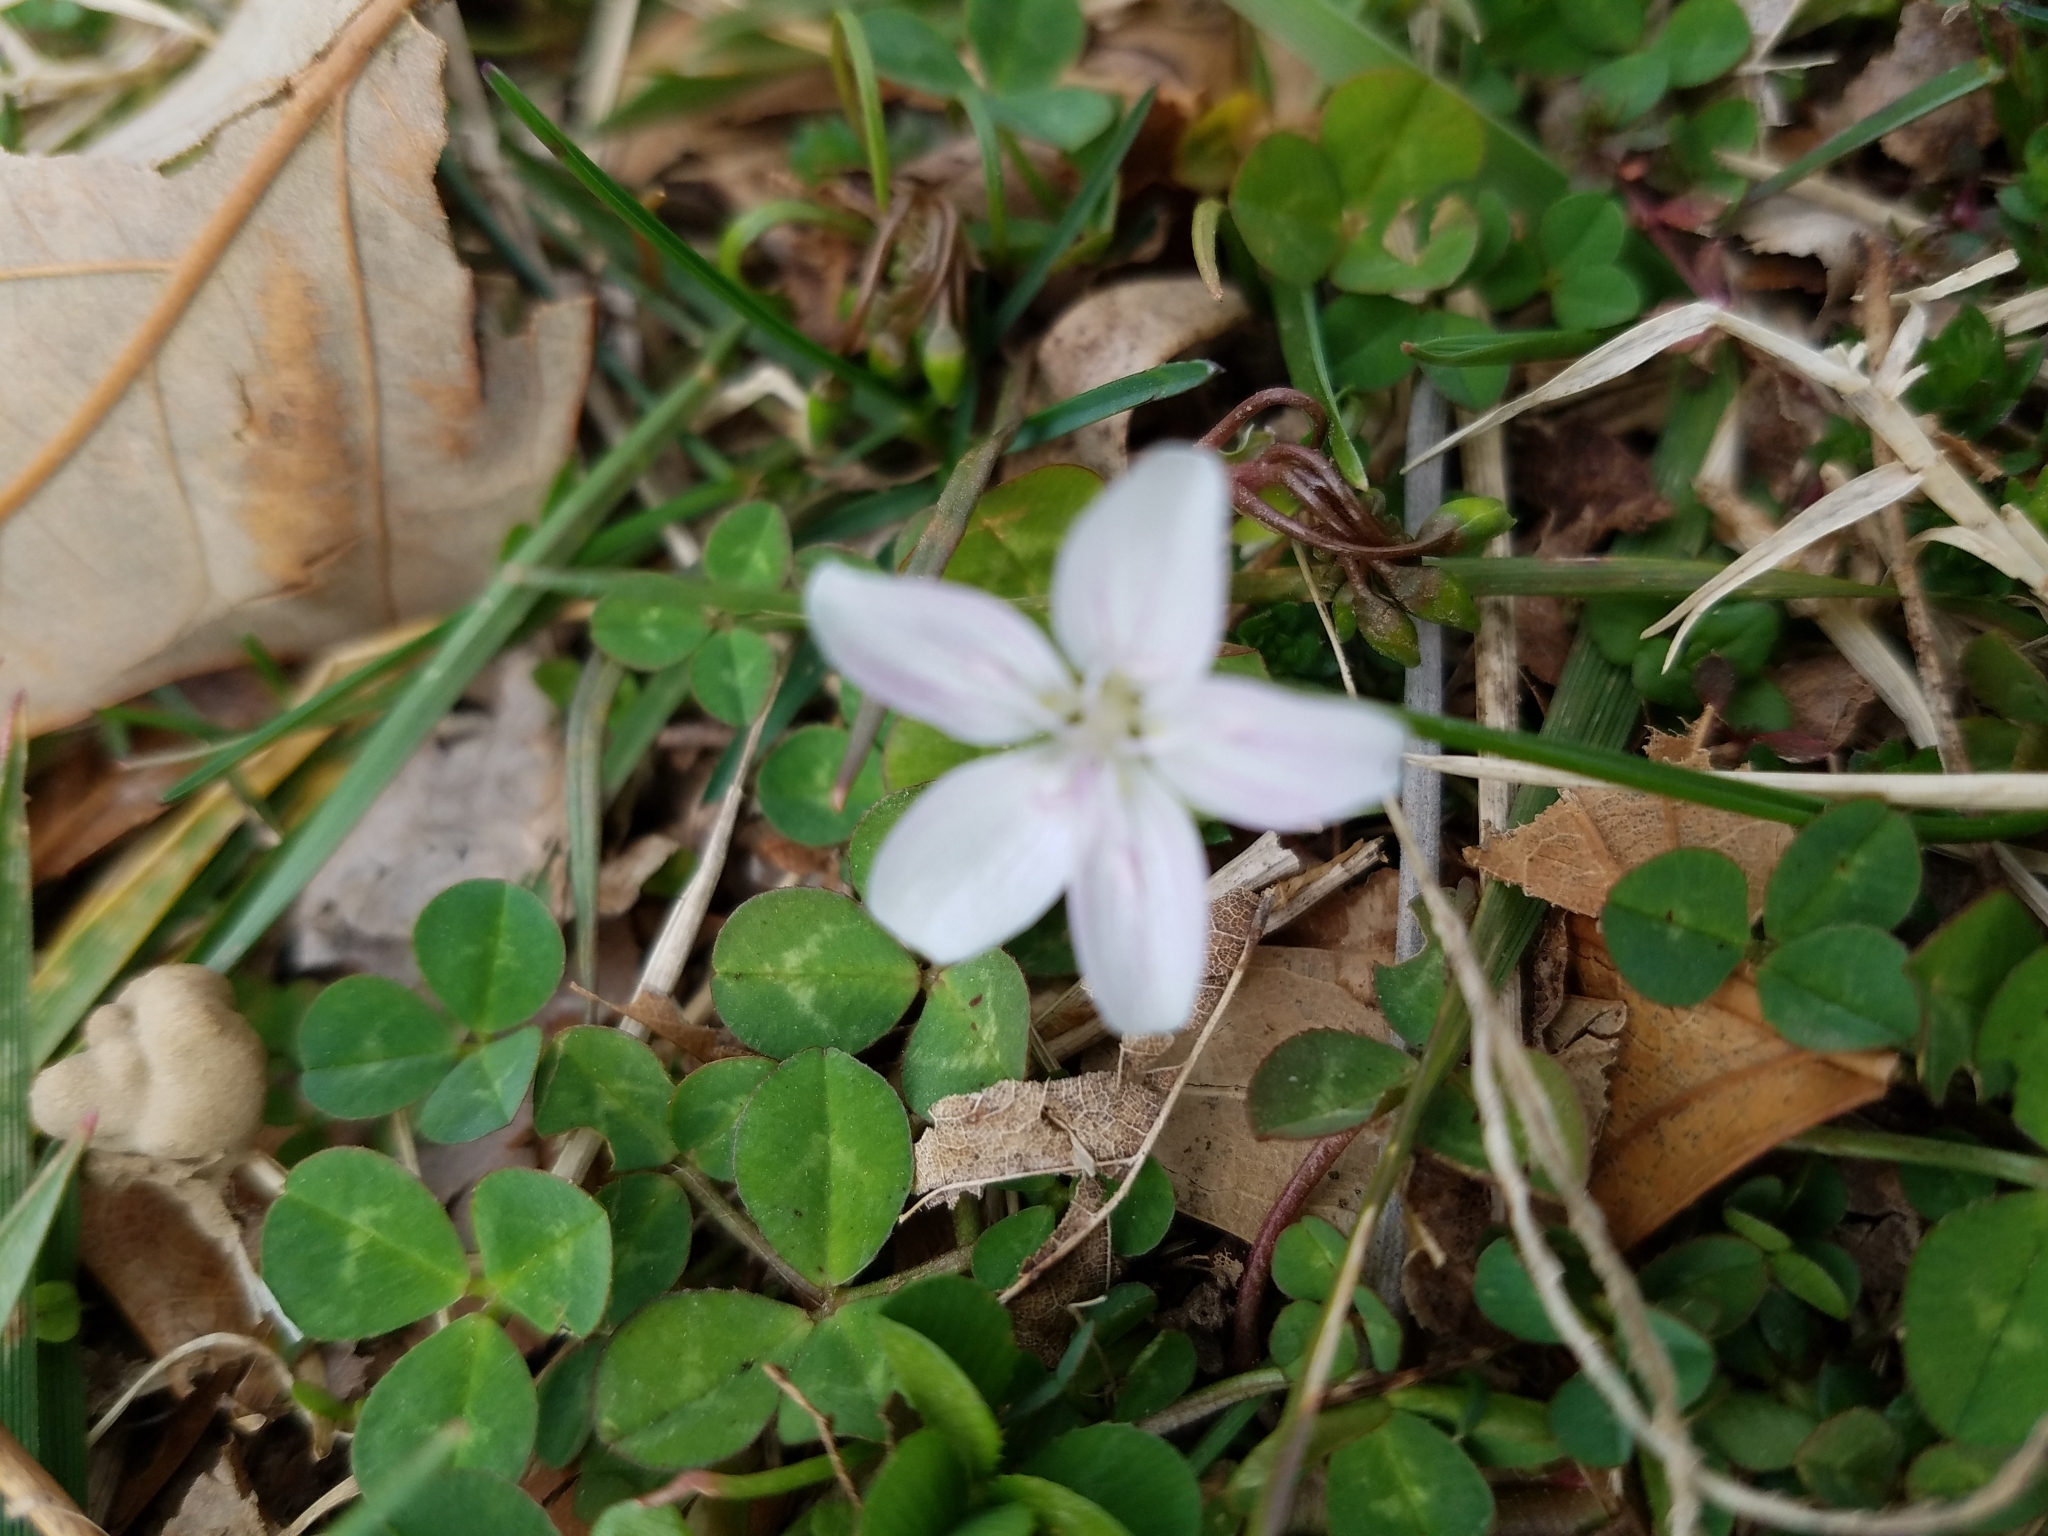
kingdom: Plantae
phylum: Tracheophyta
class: Magnoliopsida
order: Caryophyllales
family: Montiaceae
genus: Claytonia
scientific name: Claytonia virginica
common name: Virginia springbeauty
